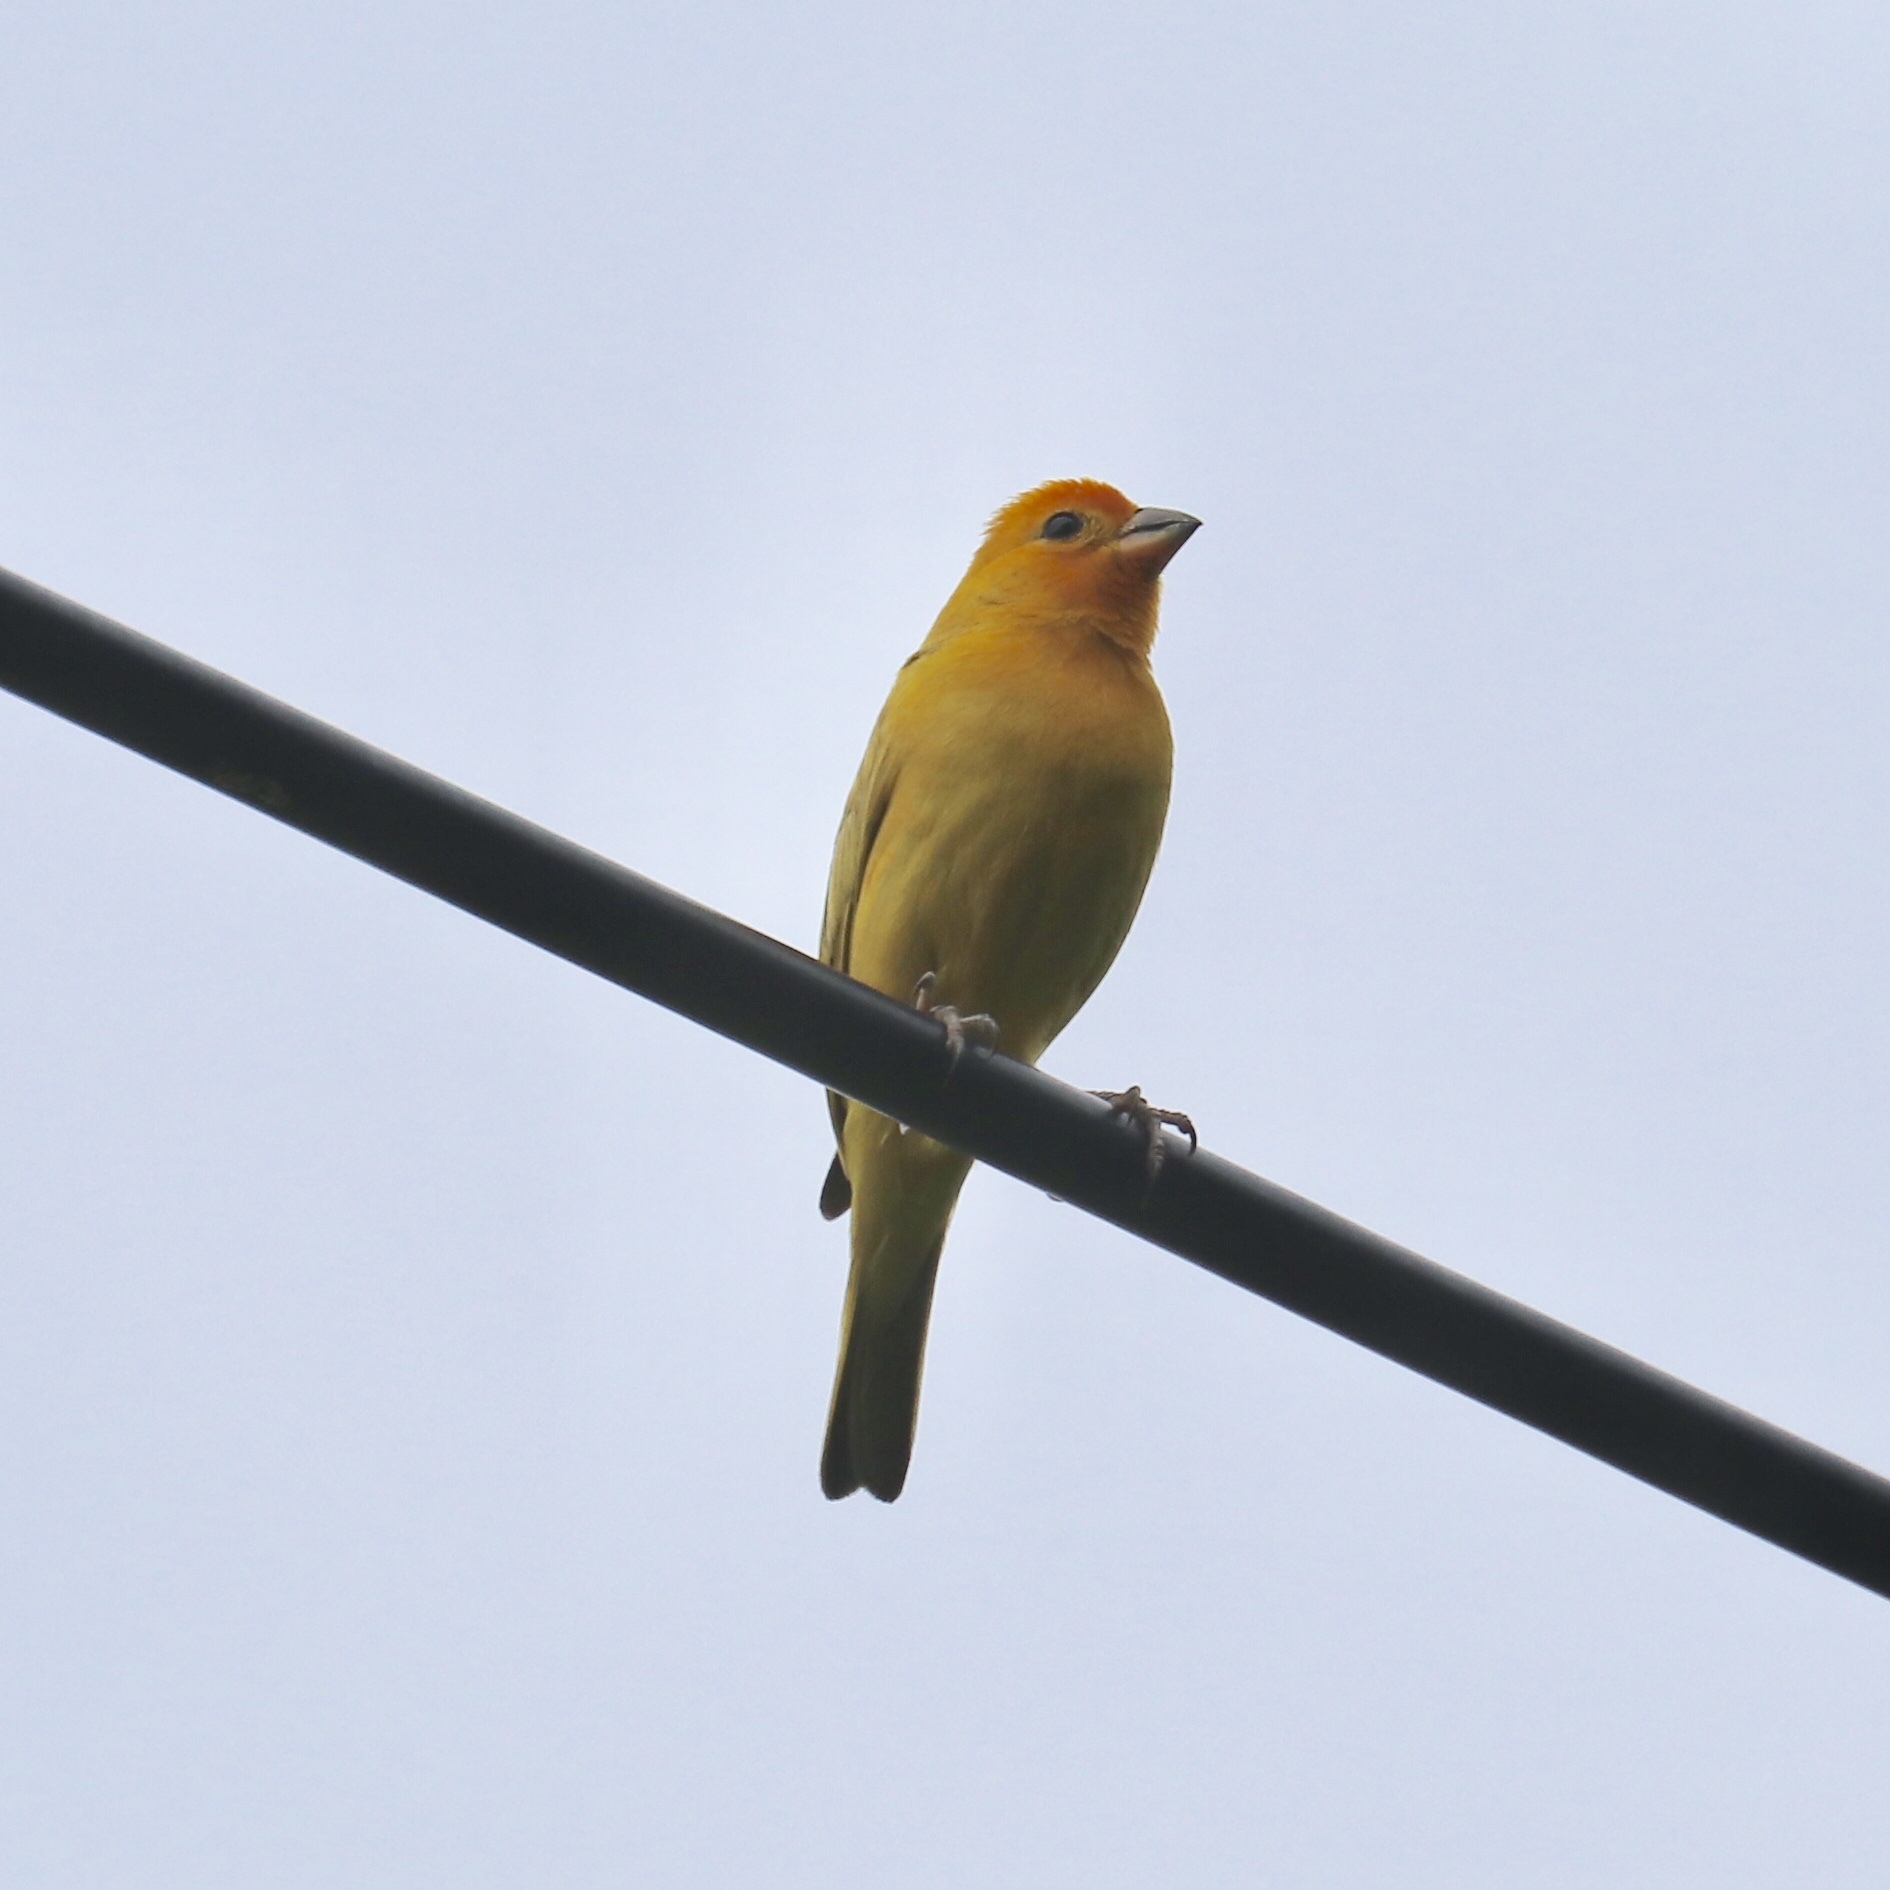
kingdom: Animalia
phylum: Chordata
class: Aves
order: Passeriformes
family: Thraupidae
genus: Sicalis
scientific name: Sicalis flaveola
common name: Saffron finch
